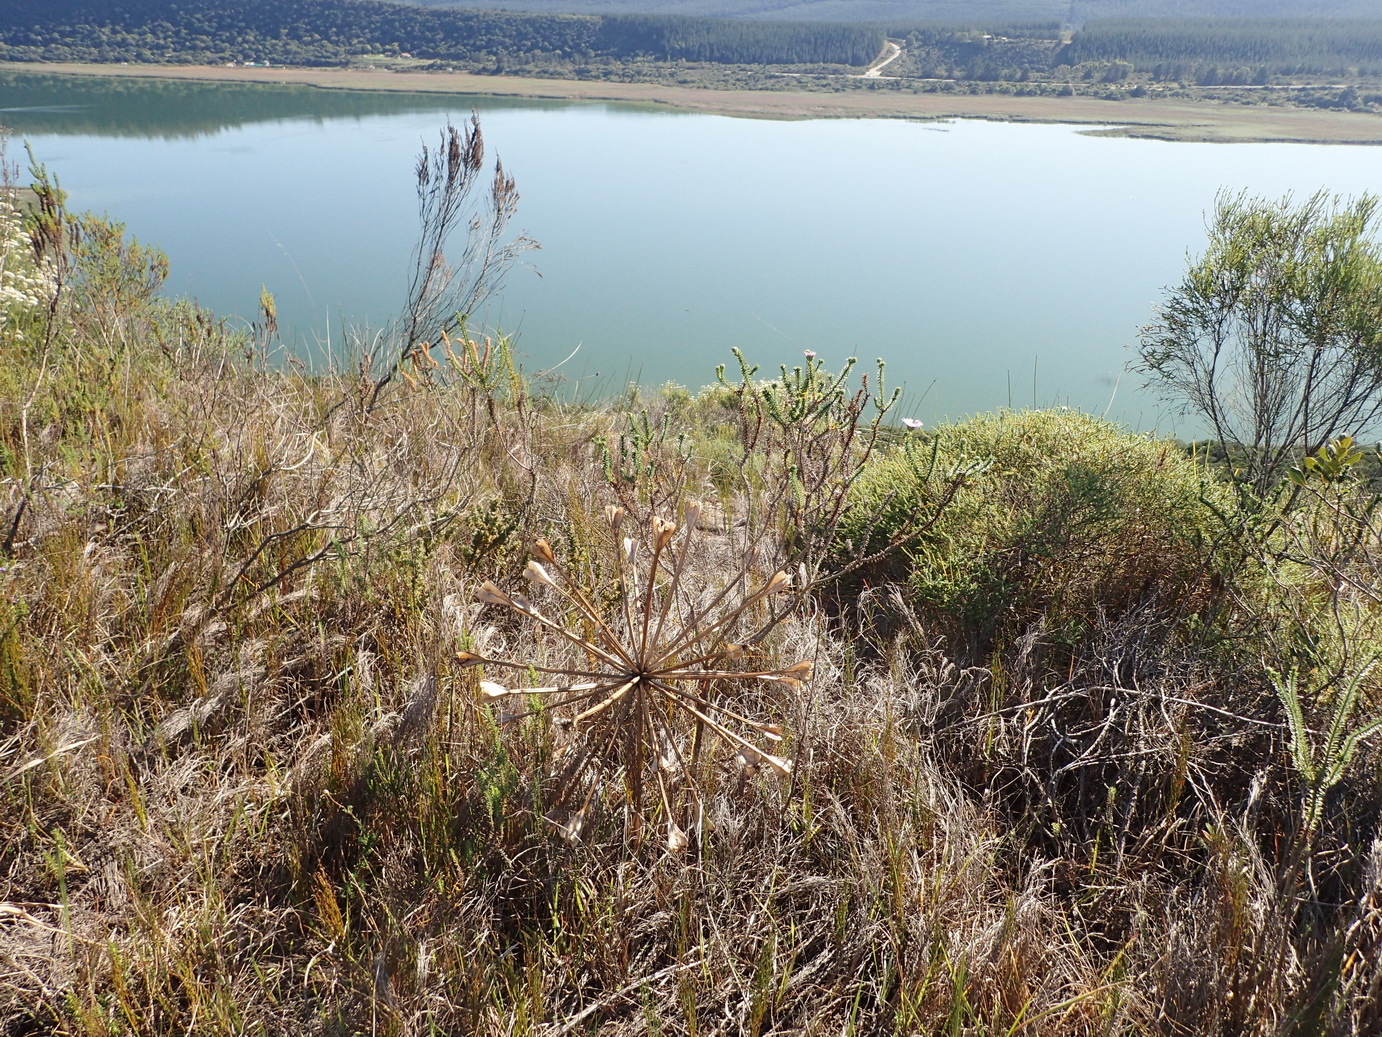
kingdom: Plantae
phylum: Tracheophyta
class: Liliopsida
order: Asparagales
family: Amaryllidaceae
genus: Brunsvigia
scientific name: Brunsvigia orientalis
